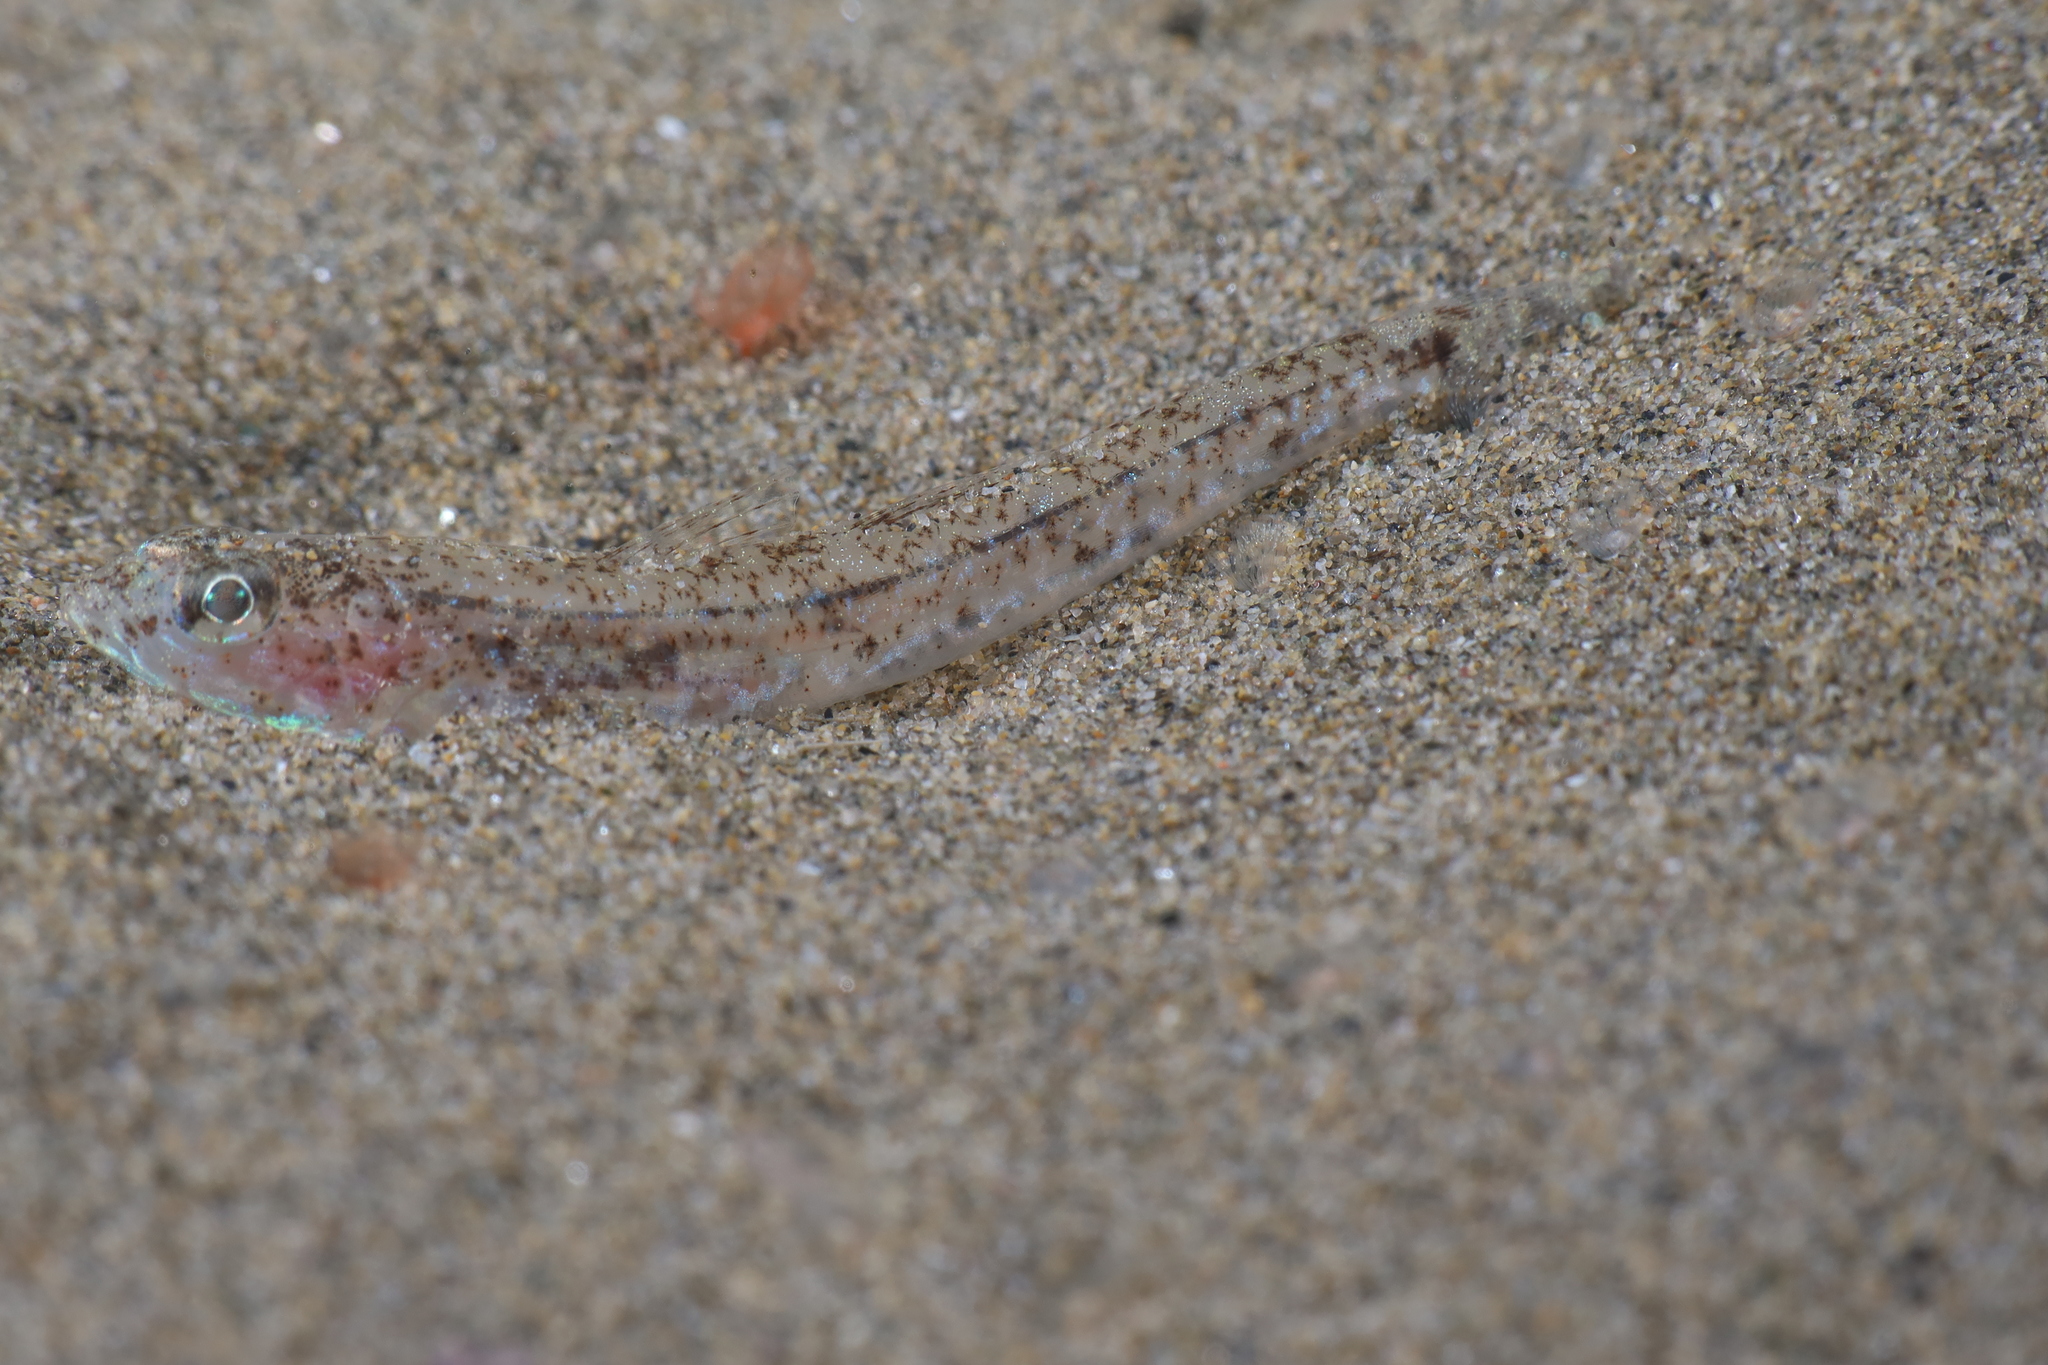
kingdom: Animalia
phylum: Chordata
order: Perciformes
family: Gobiidae
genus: Pomatoschistus
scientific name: Pomatoschistus marmoratus
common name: Marbled goby
